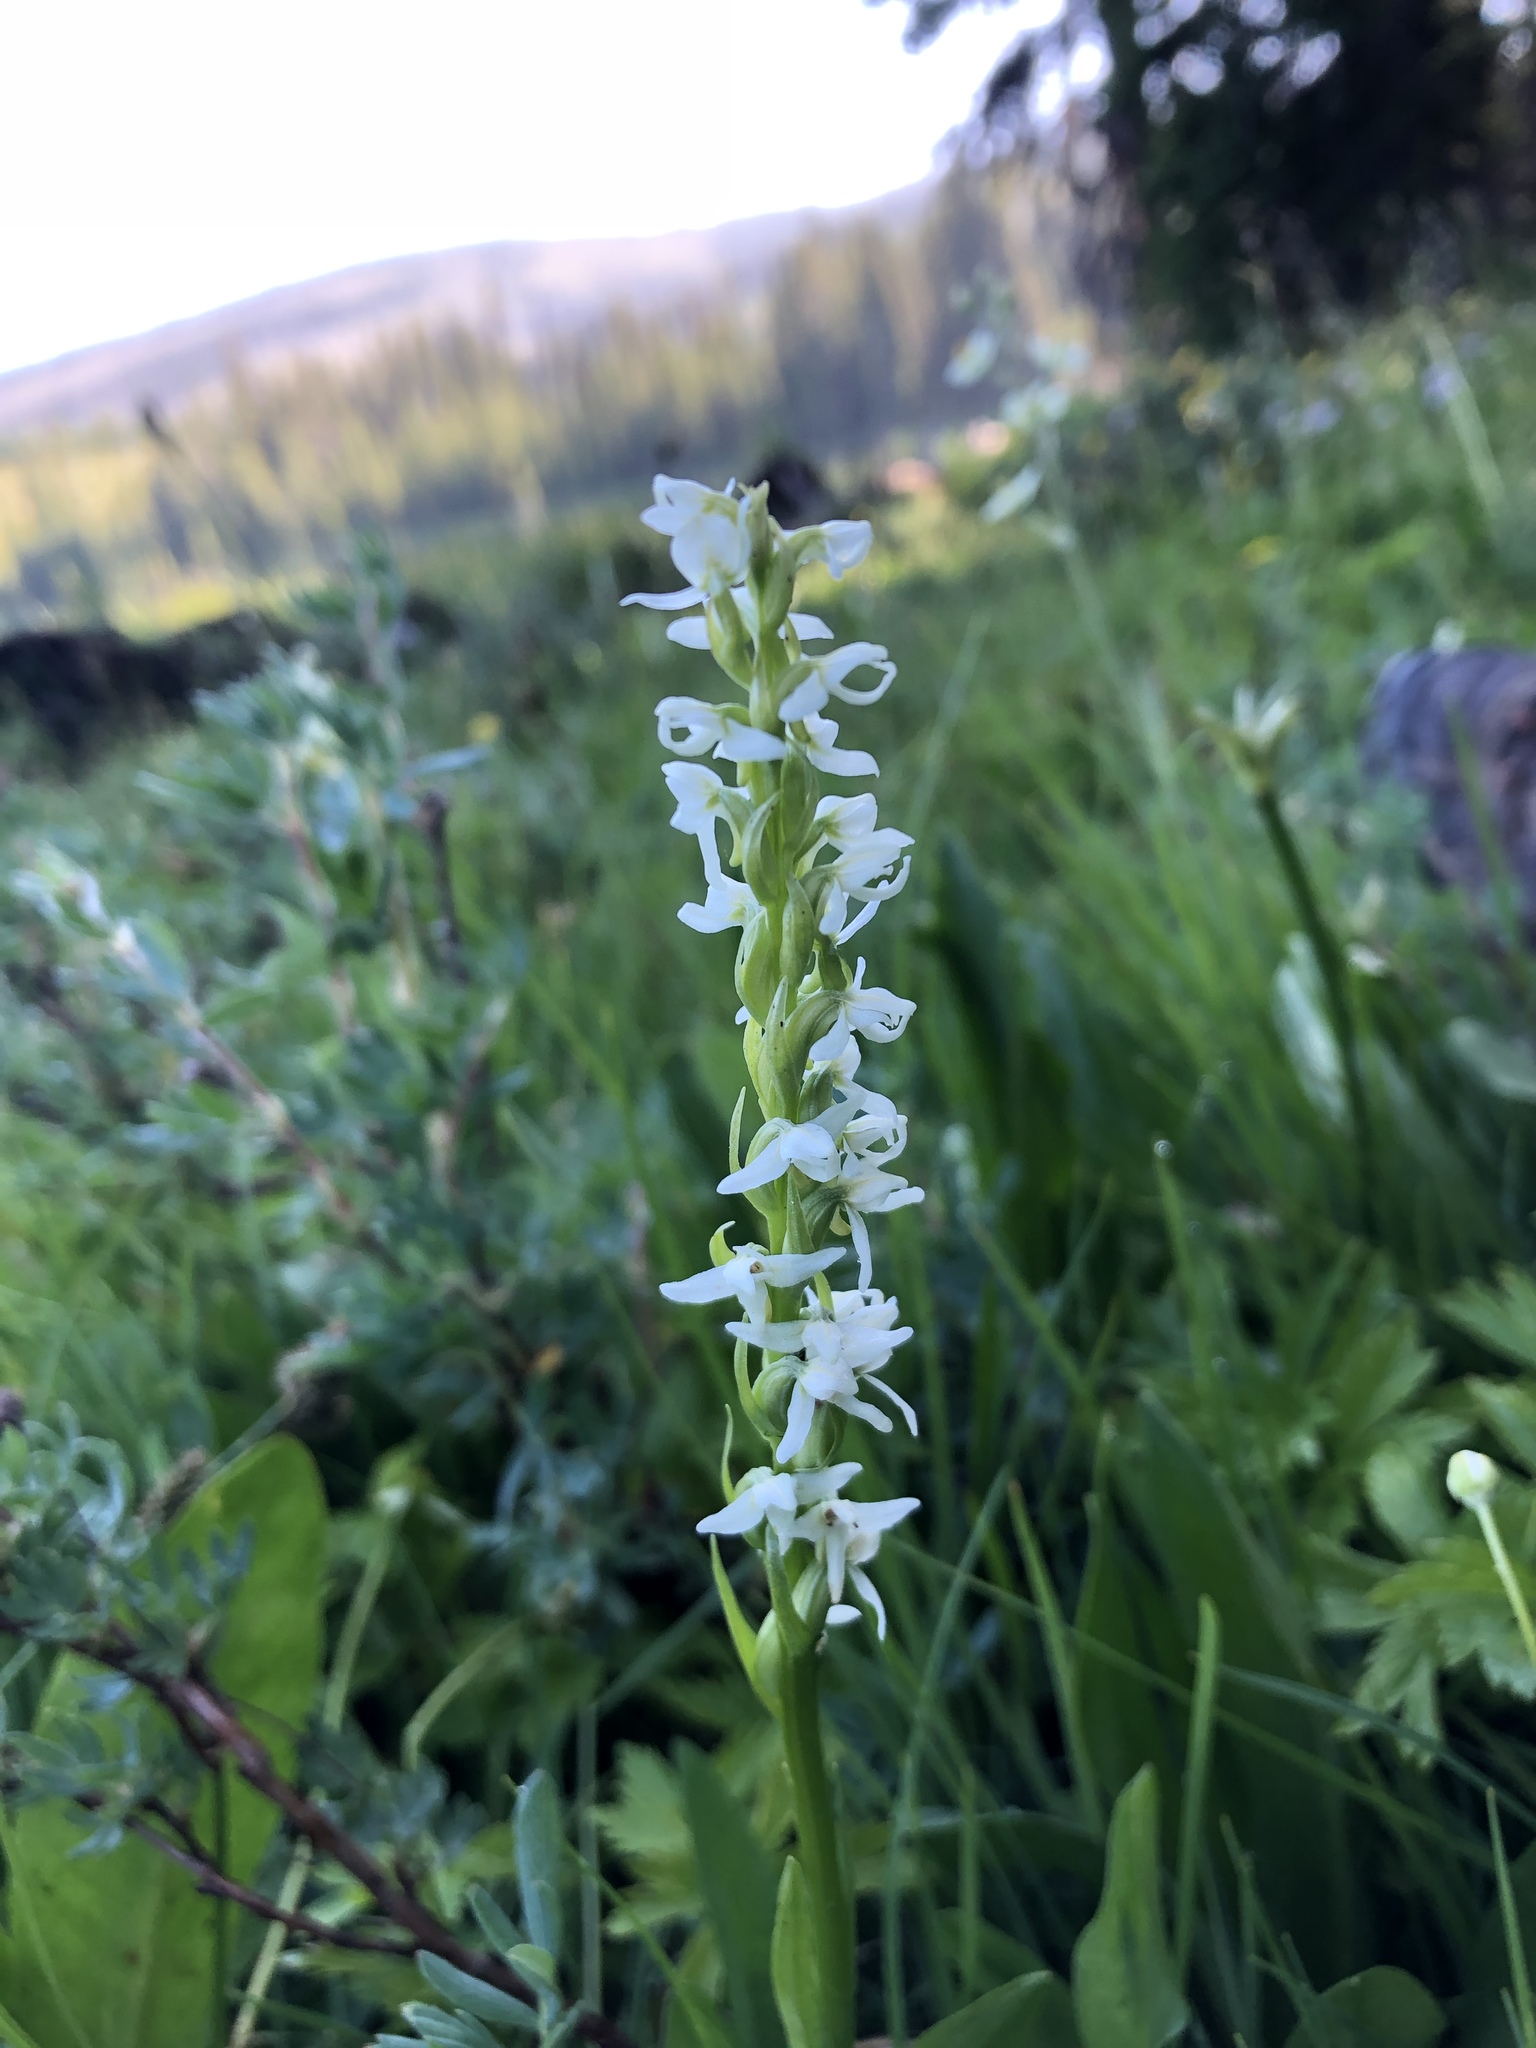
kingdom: Plantae
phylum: Tracheophyta
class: Liliopsida
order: Asparagales
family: Orchidaceae
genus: Platanthera
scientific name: Platanthera dilatata
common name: Bog candles
